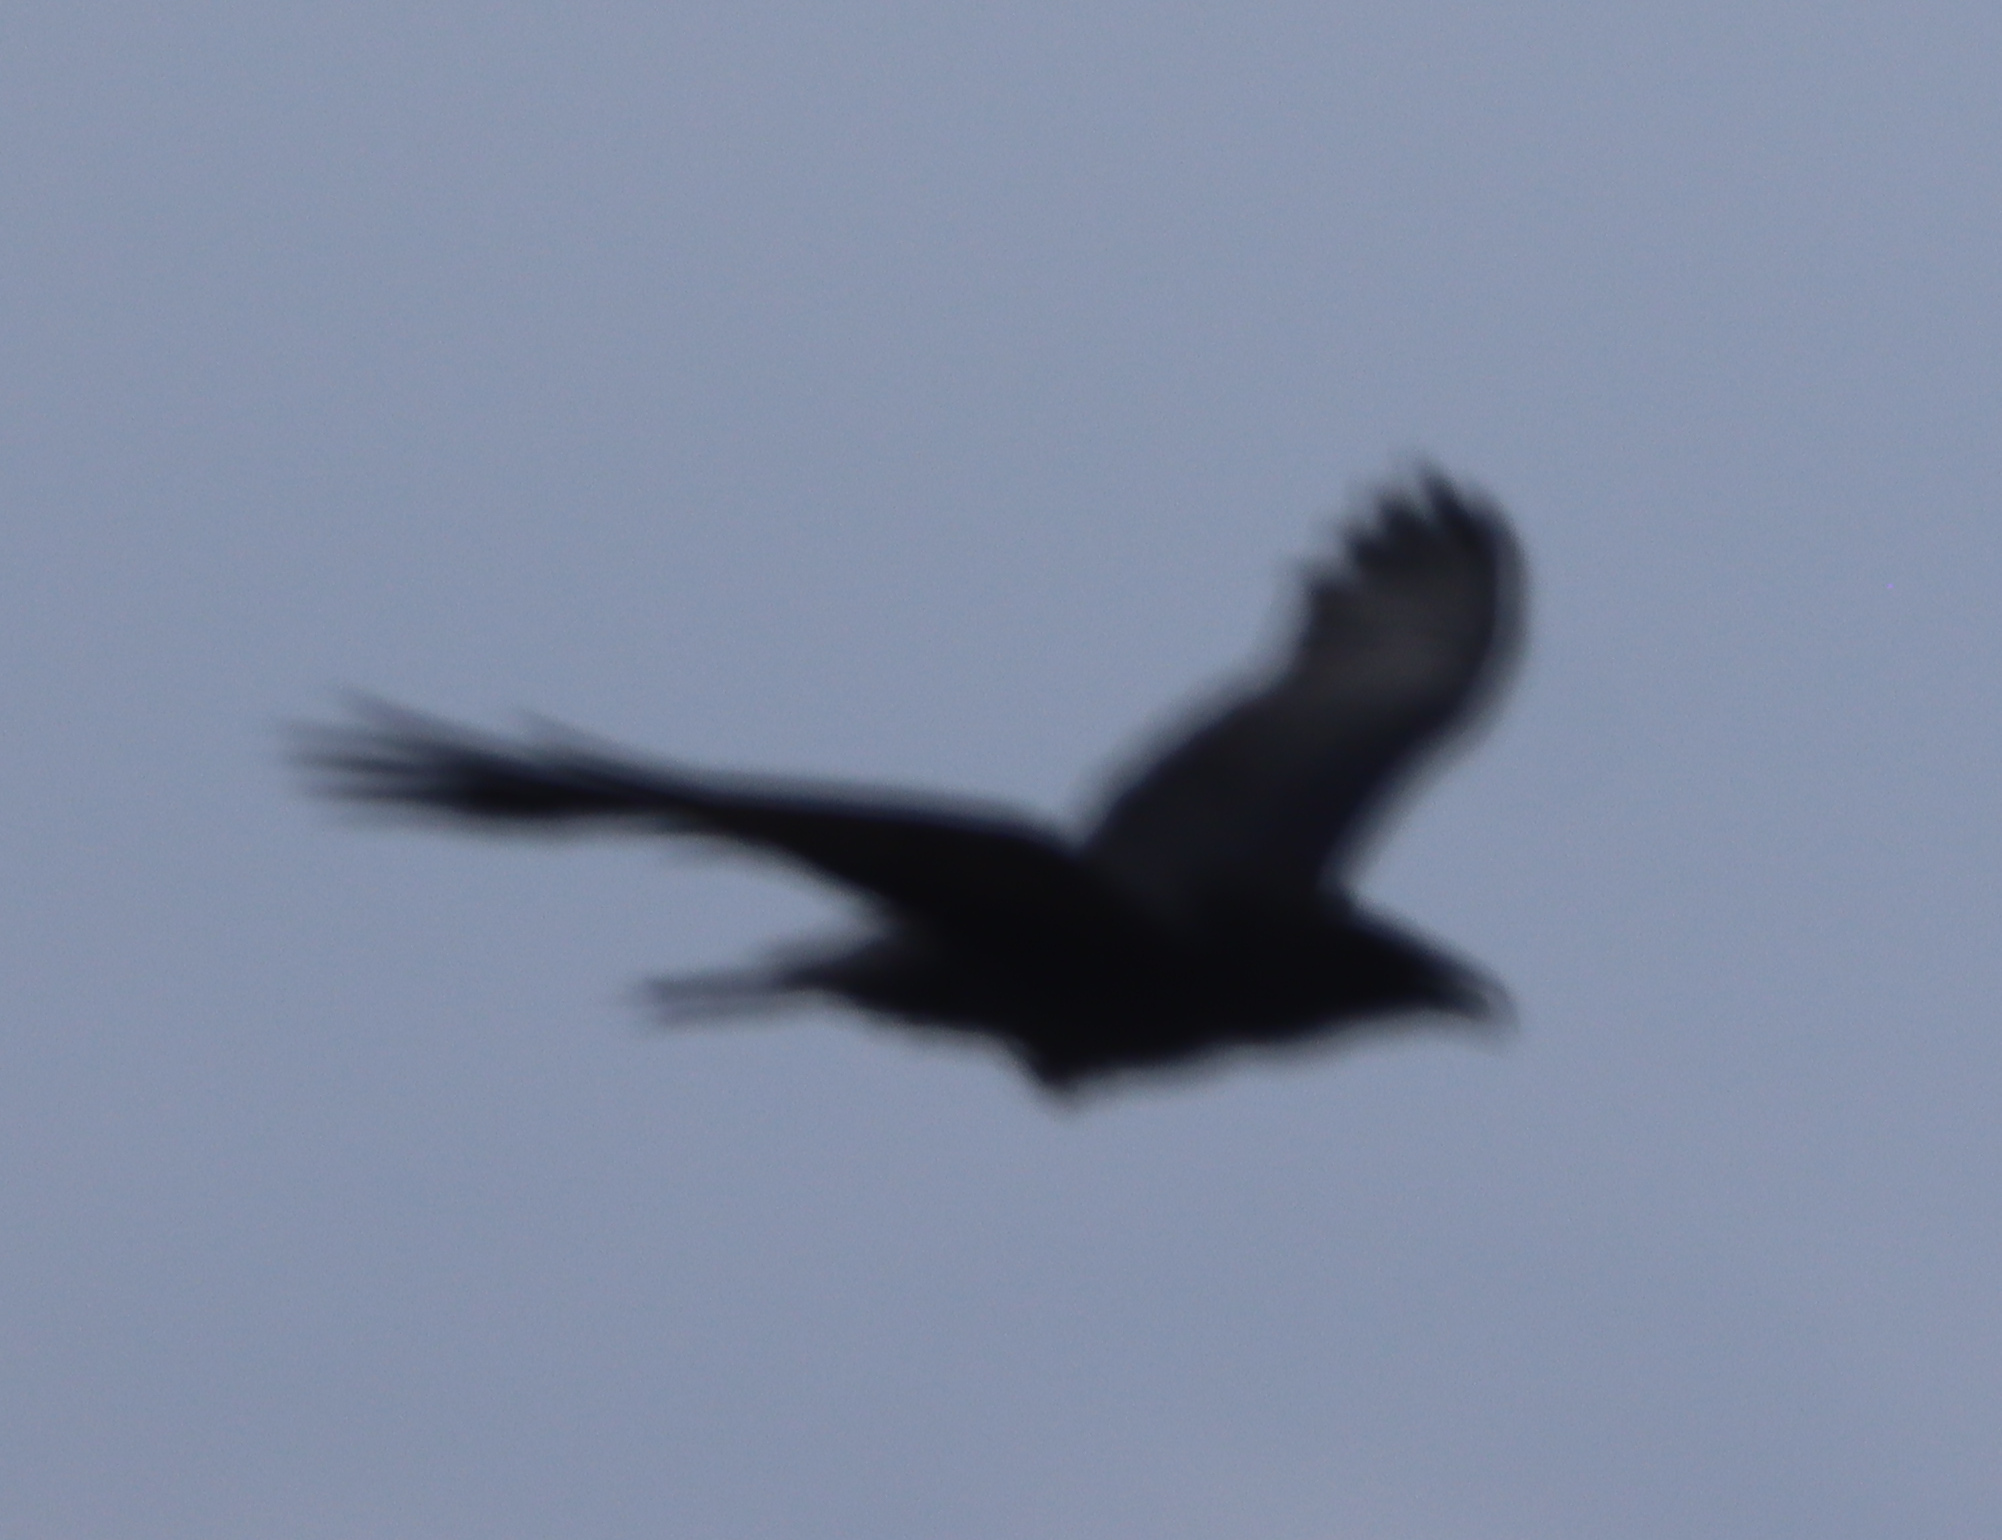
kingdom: Animalia
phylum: Chordata
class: Aves
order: Passeriformes
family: Corvidae
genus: Corvus
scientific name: Corvus corax
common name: Common raven
